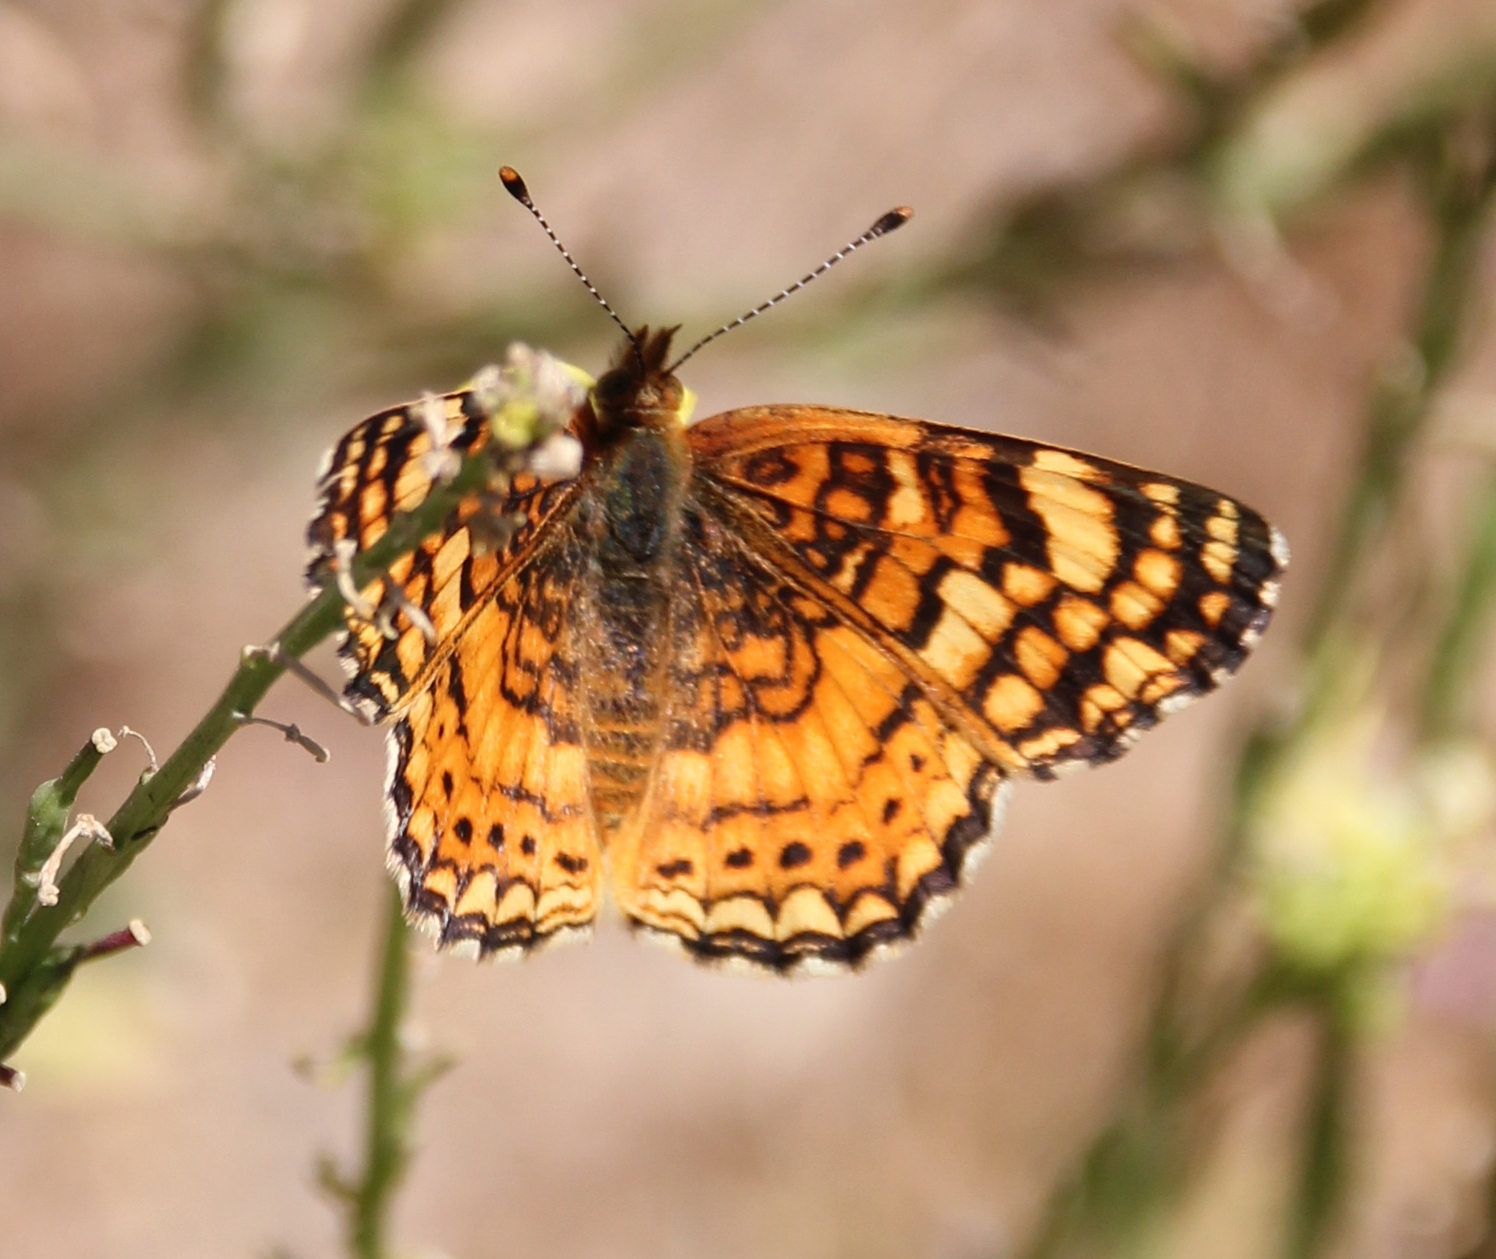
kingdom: Animalia
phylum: Arthropoda
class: Insecta
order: Lepidoptera
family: Nymphalidae
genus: Eresia
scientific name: Eresia aveyrona
